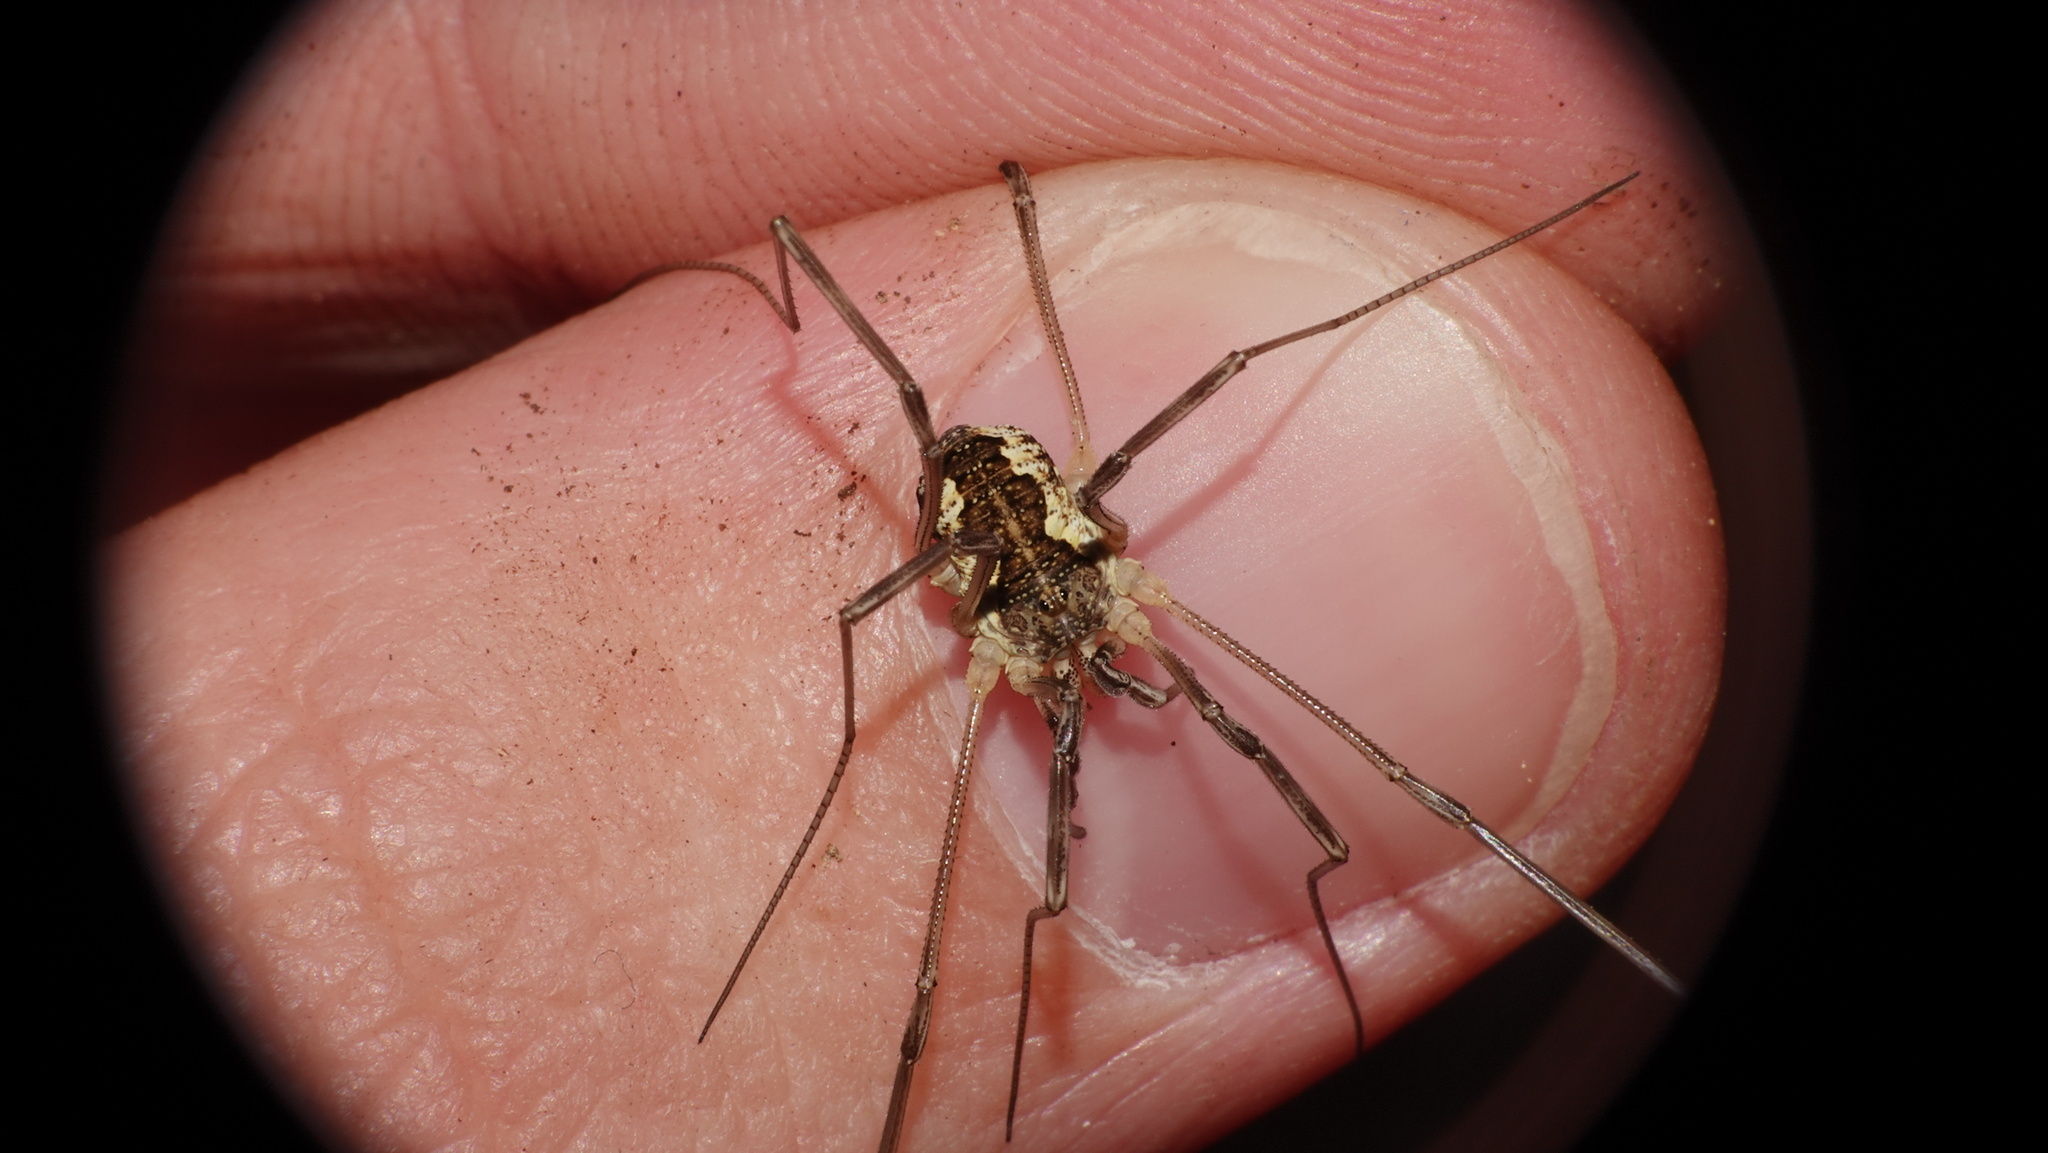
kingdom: Animalia
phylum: Arthropoda
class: Arachnida
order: Opiliones
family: Phalangiidae
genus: Mitopus
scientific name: Mitopus morio
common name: Saddleback harvestman
